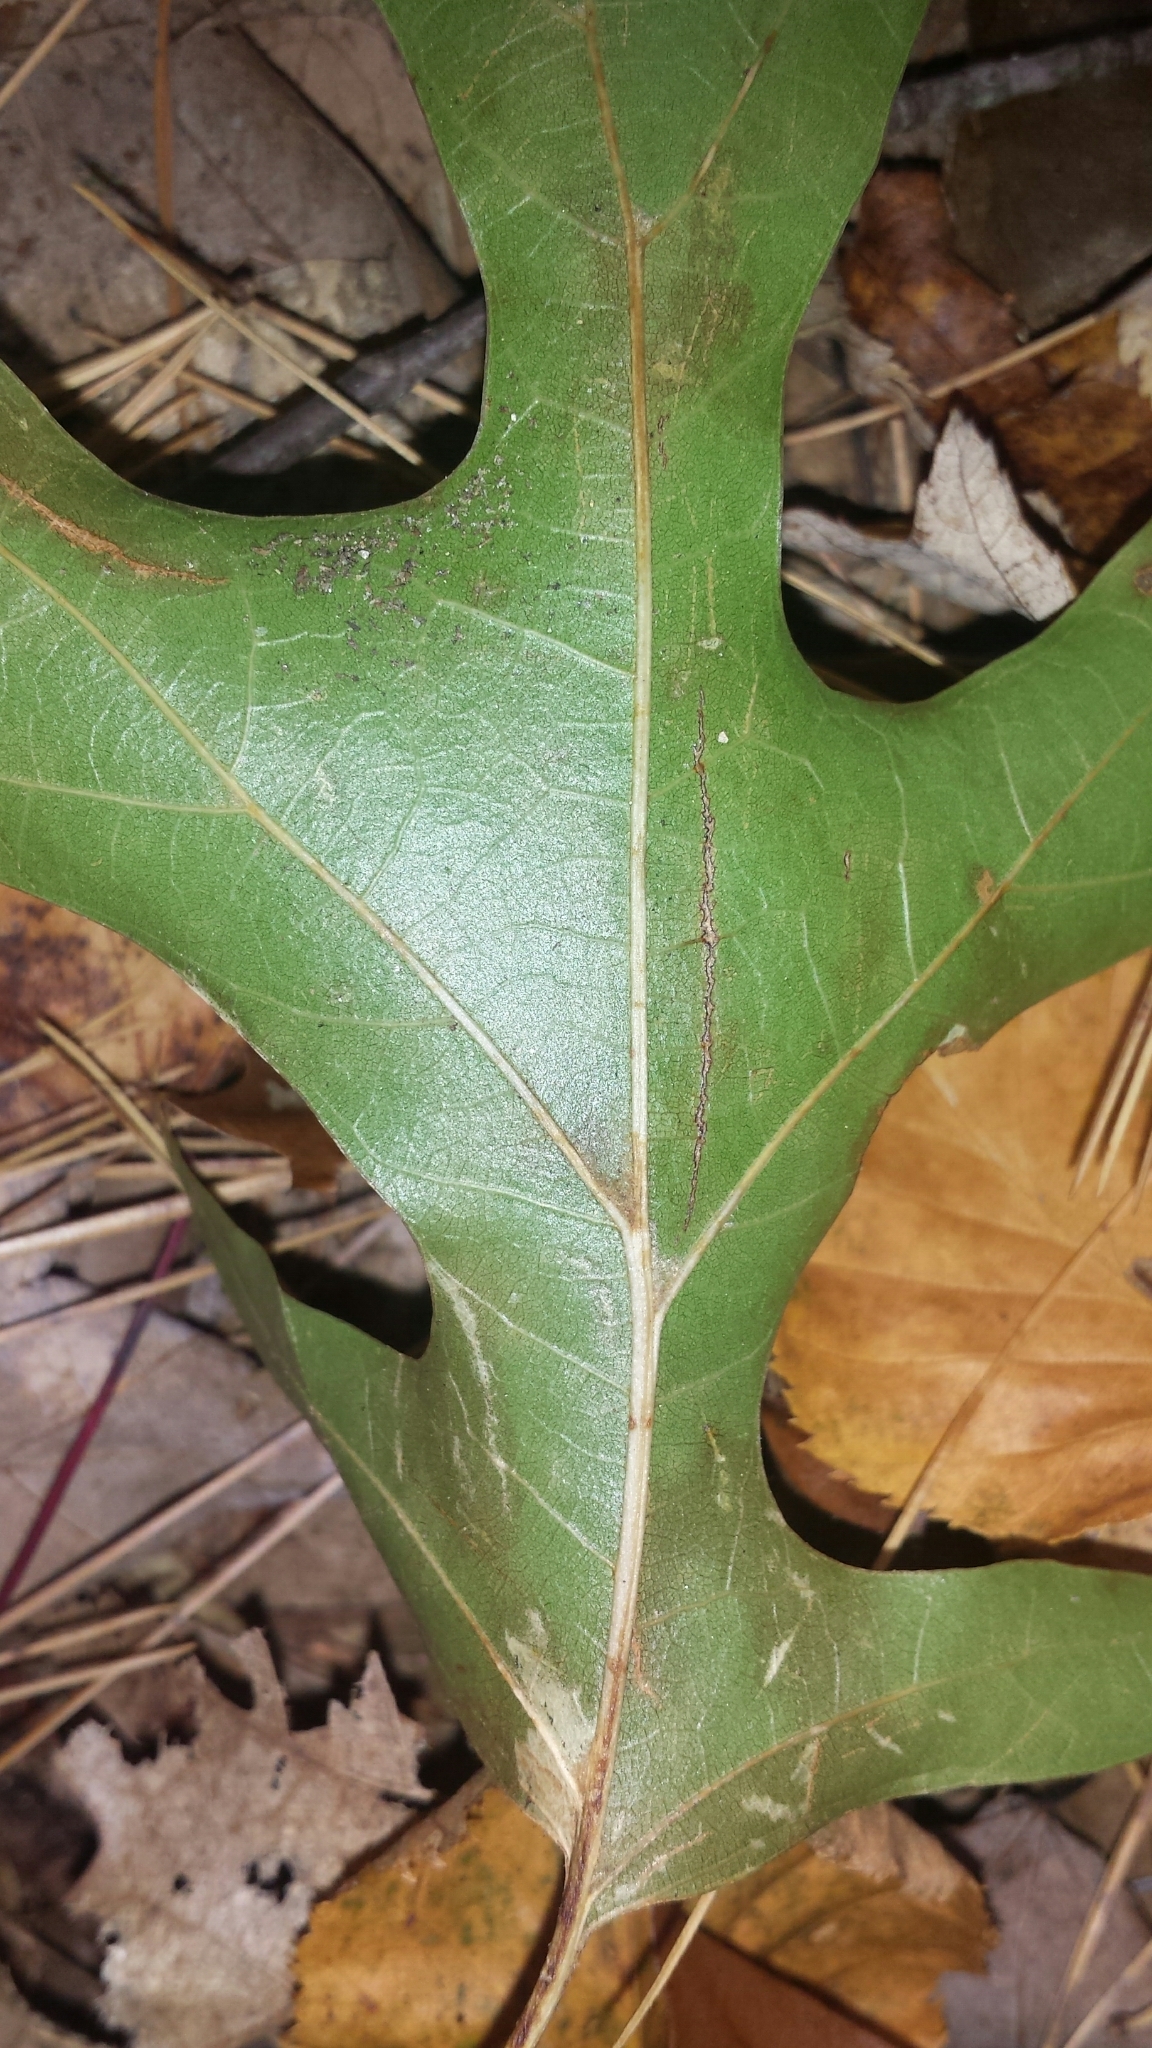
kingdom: Plantae
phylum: Tracheophyta
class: Magnoliopsida
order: Fagales
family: Fagaceae
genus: Quercus
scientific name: Quercus velutina
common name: Black oak
